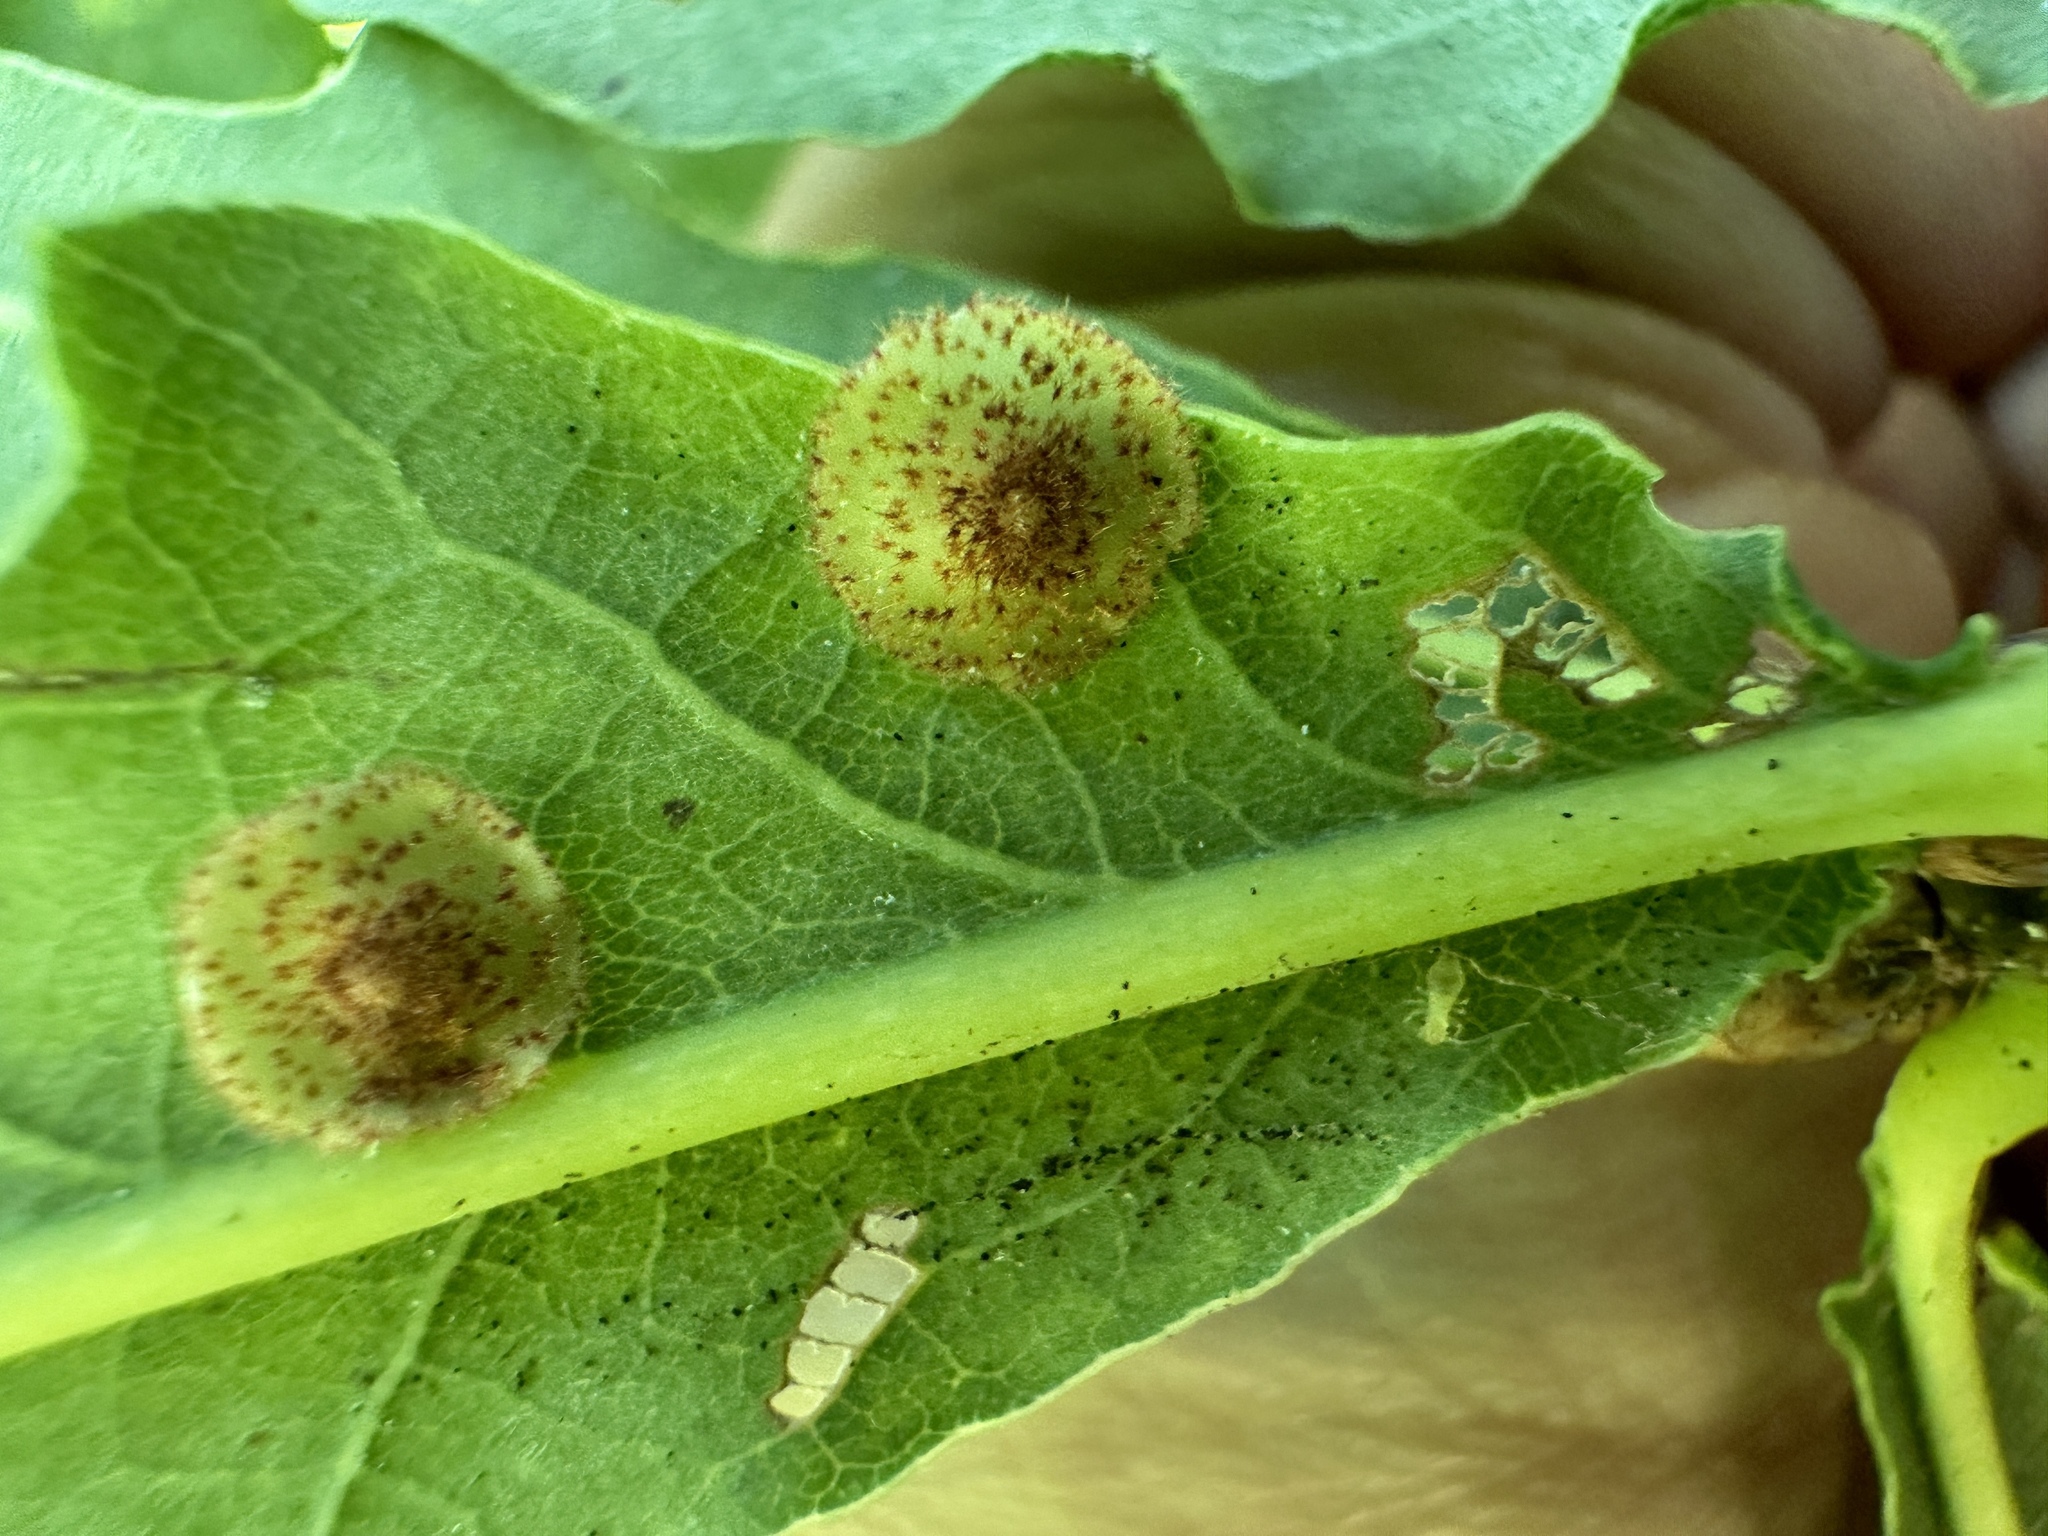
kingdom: Animalia
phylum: Arthropoda
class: Insecta
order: Hymenoptera
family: Cynipidae
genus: Neuroterus
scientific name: Neuroterus quercusbaccarum
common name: Common spangle gall
